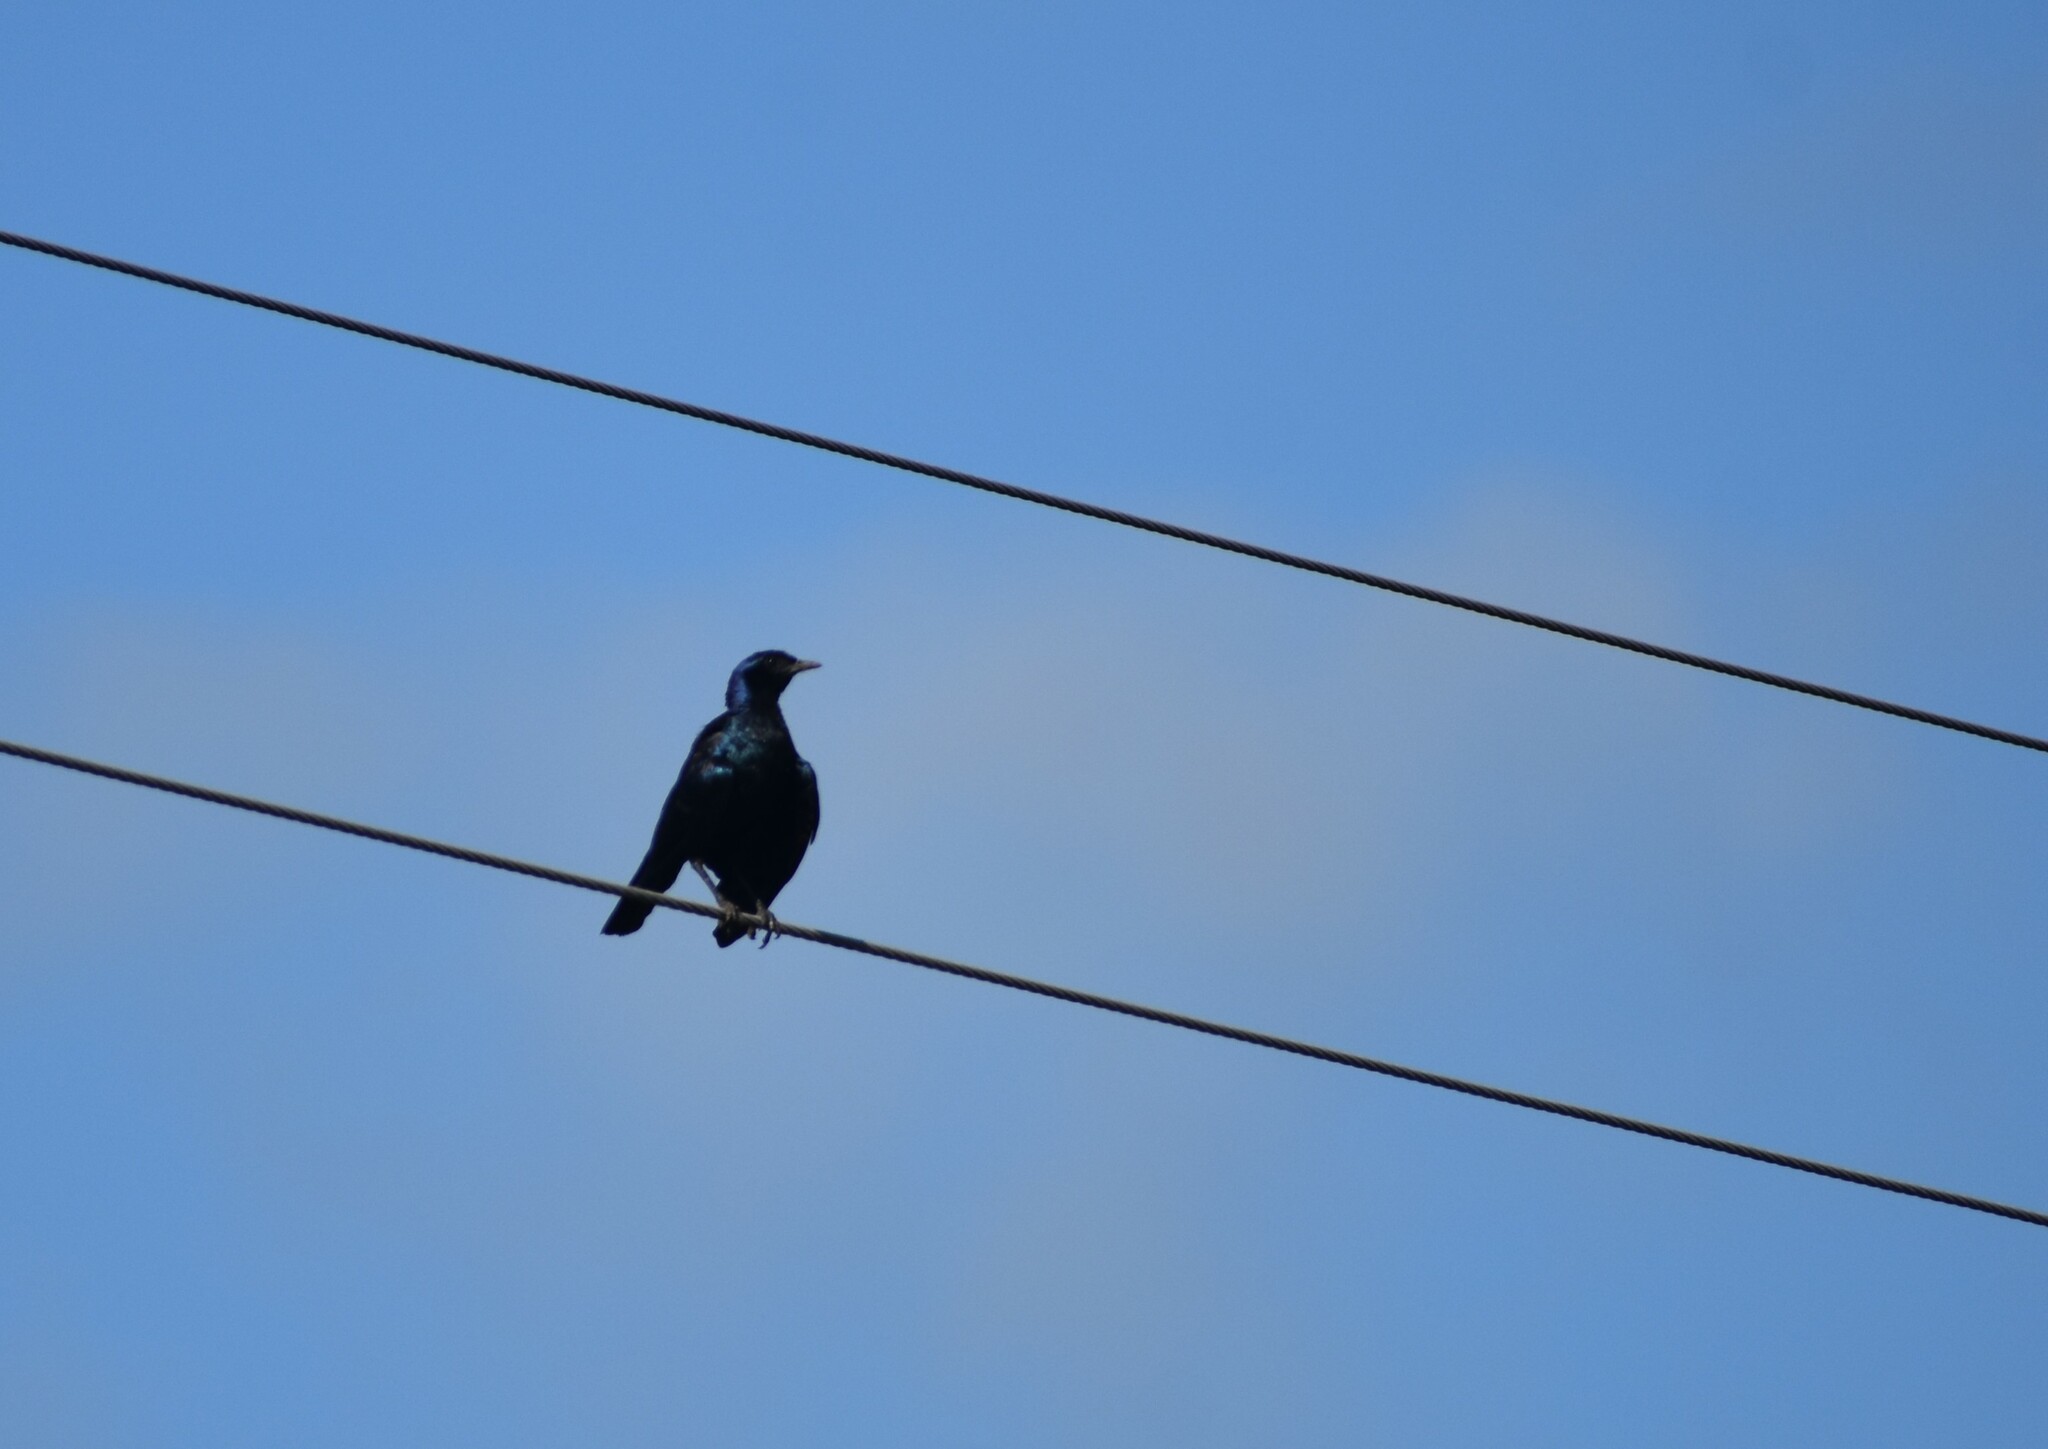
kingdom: Animalia
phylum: Chordata
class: Aves
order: Passeriformes
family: Sturnidae
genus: Lamprotornis
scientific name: Lamprotornis australis
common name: Burchell's starling
